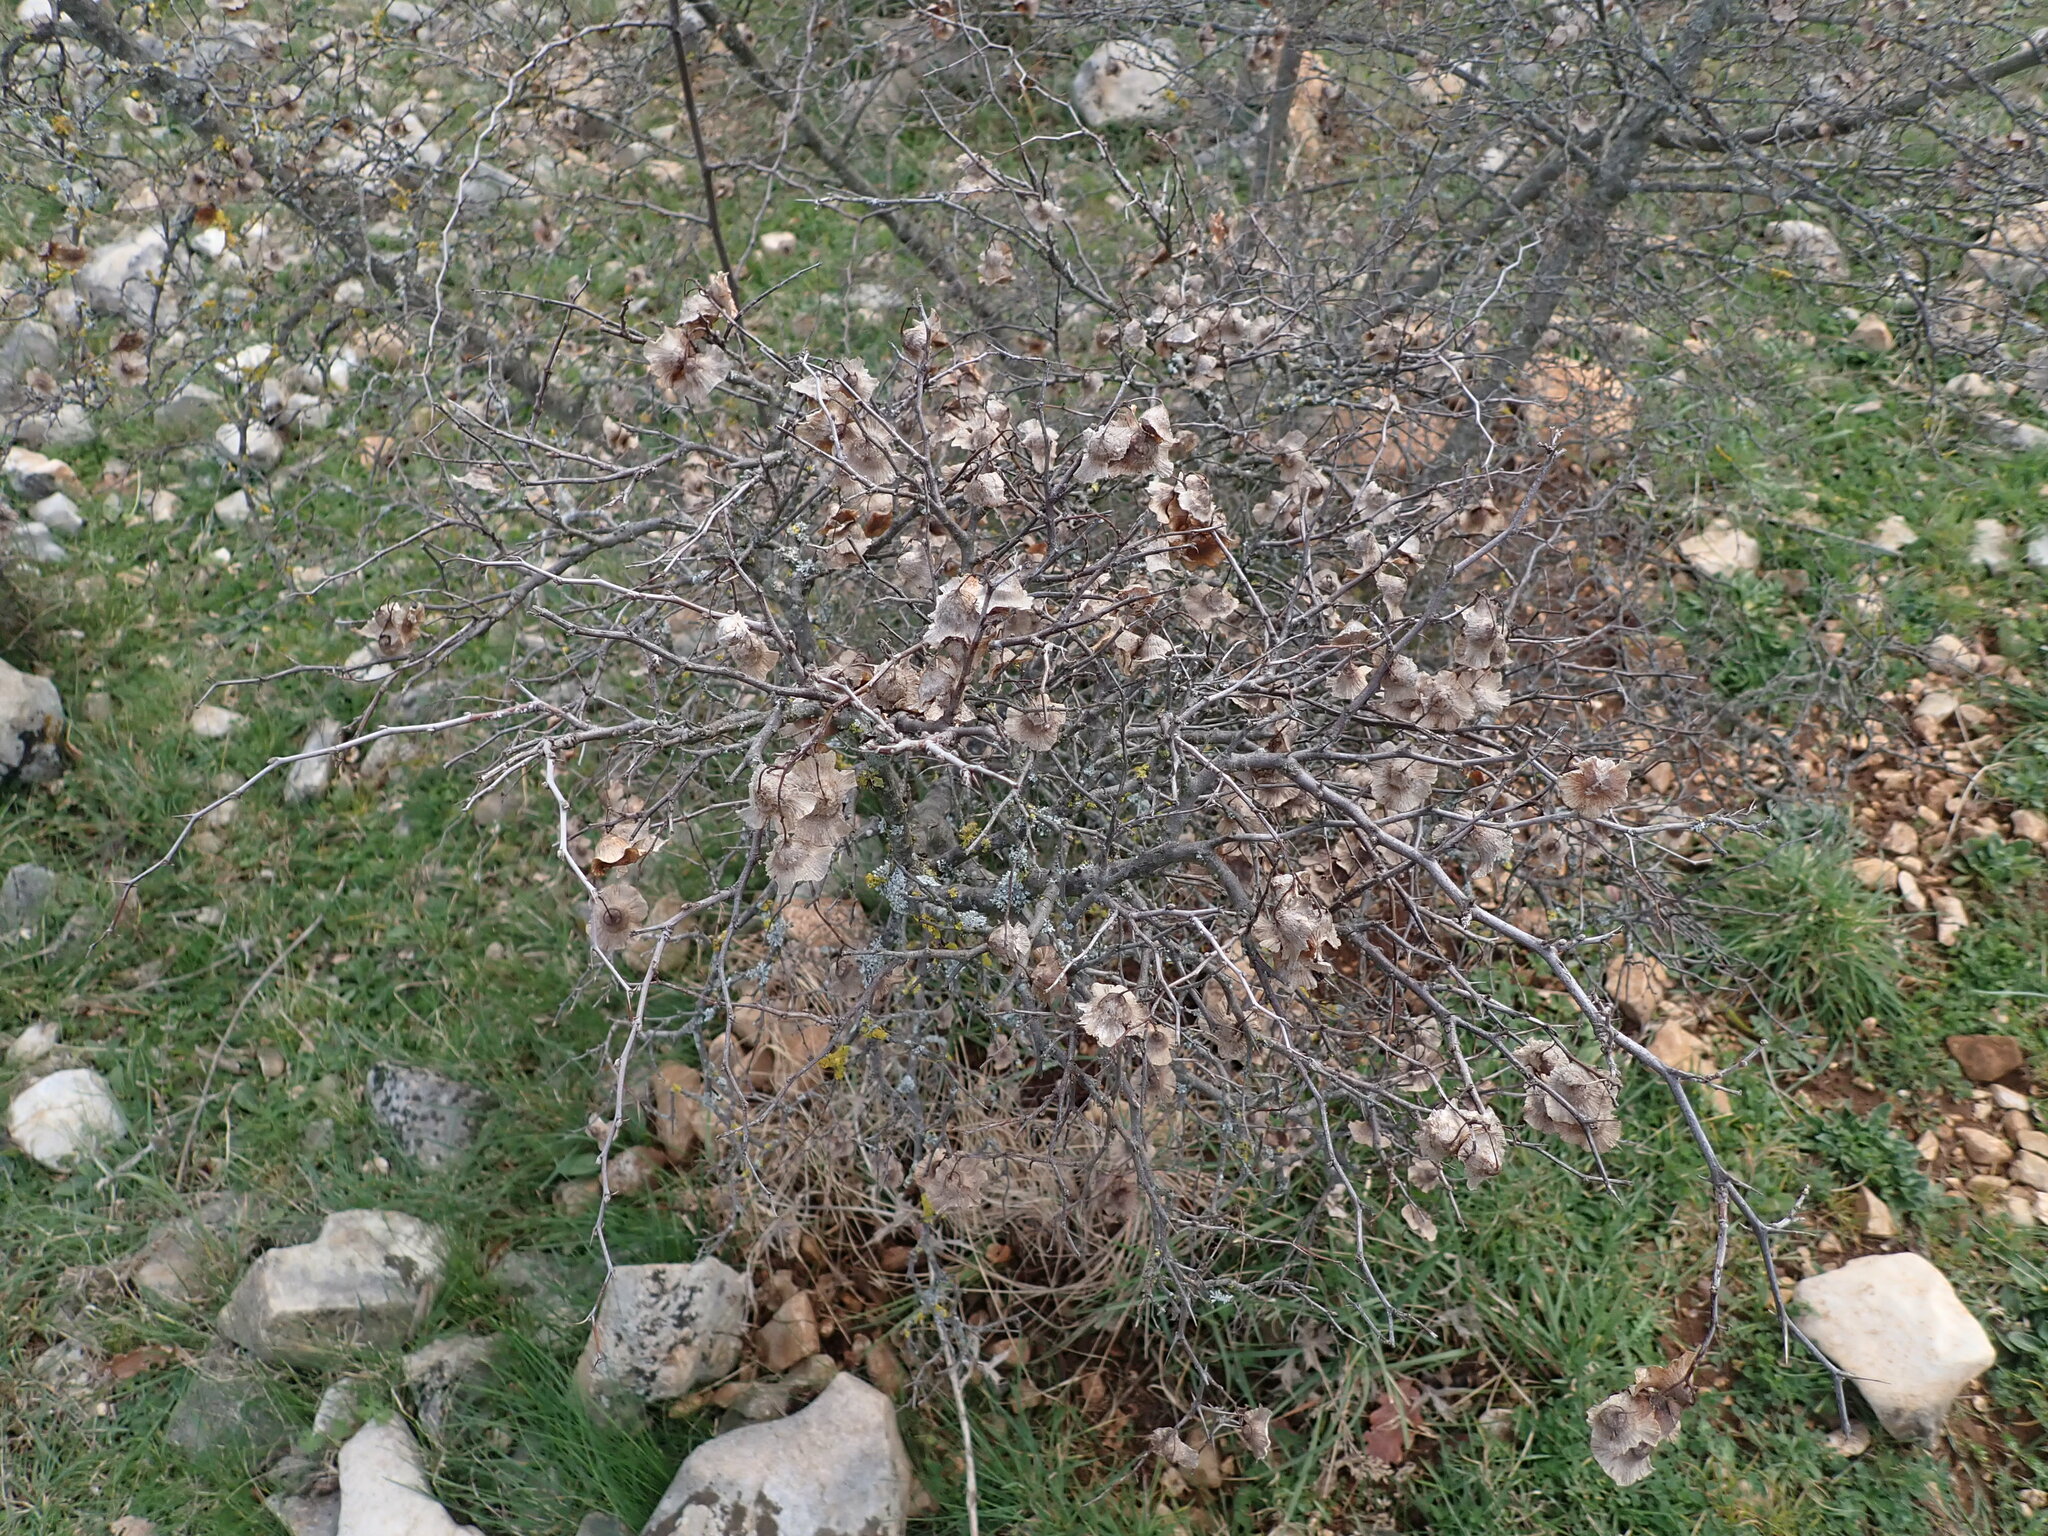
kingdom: Plantae
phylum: Tracheophyta
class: Magnoliopsida
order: Rosales
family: Rhamnaceae
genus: Paliurus
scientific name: Paliurus spina-christi
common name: Jeruselem thorn
